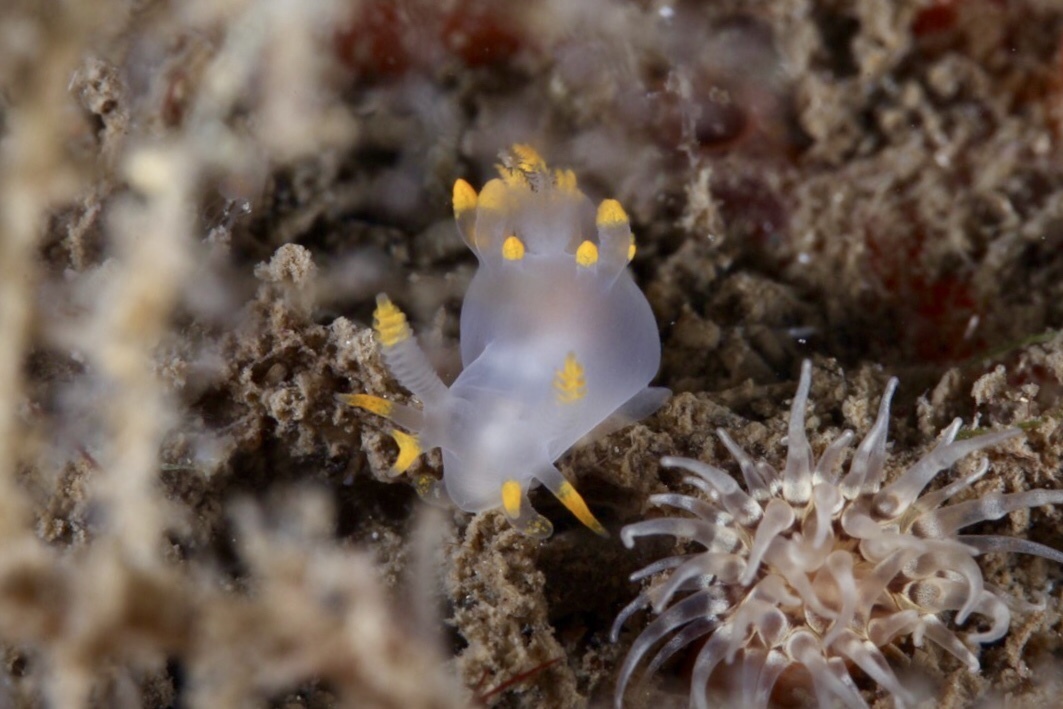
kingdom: Animalia
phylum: Mollusca
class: Gastropoda
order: Nudibranchia
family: Goniodorididae
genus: Ancula
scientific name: Ancula gibbosa
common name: Atlantic ancula
